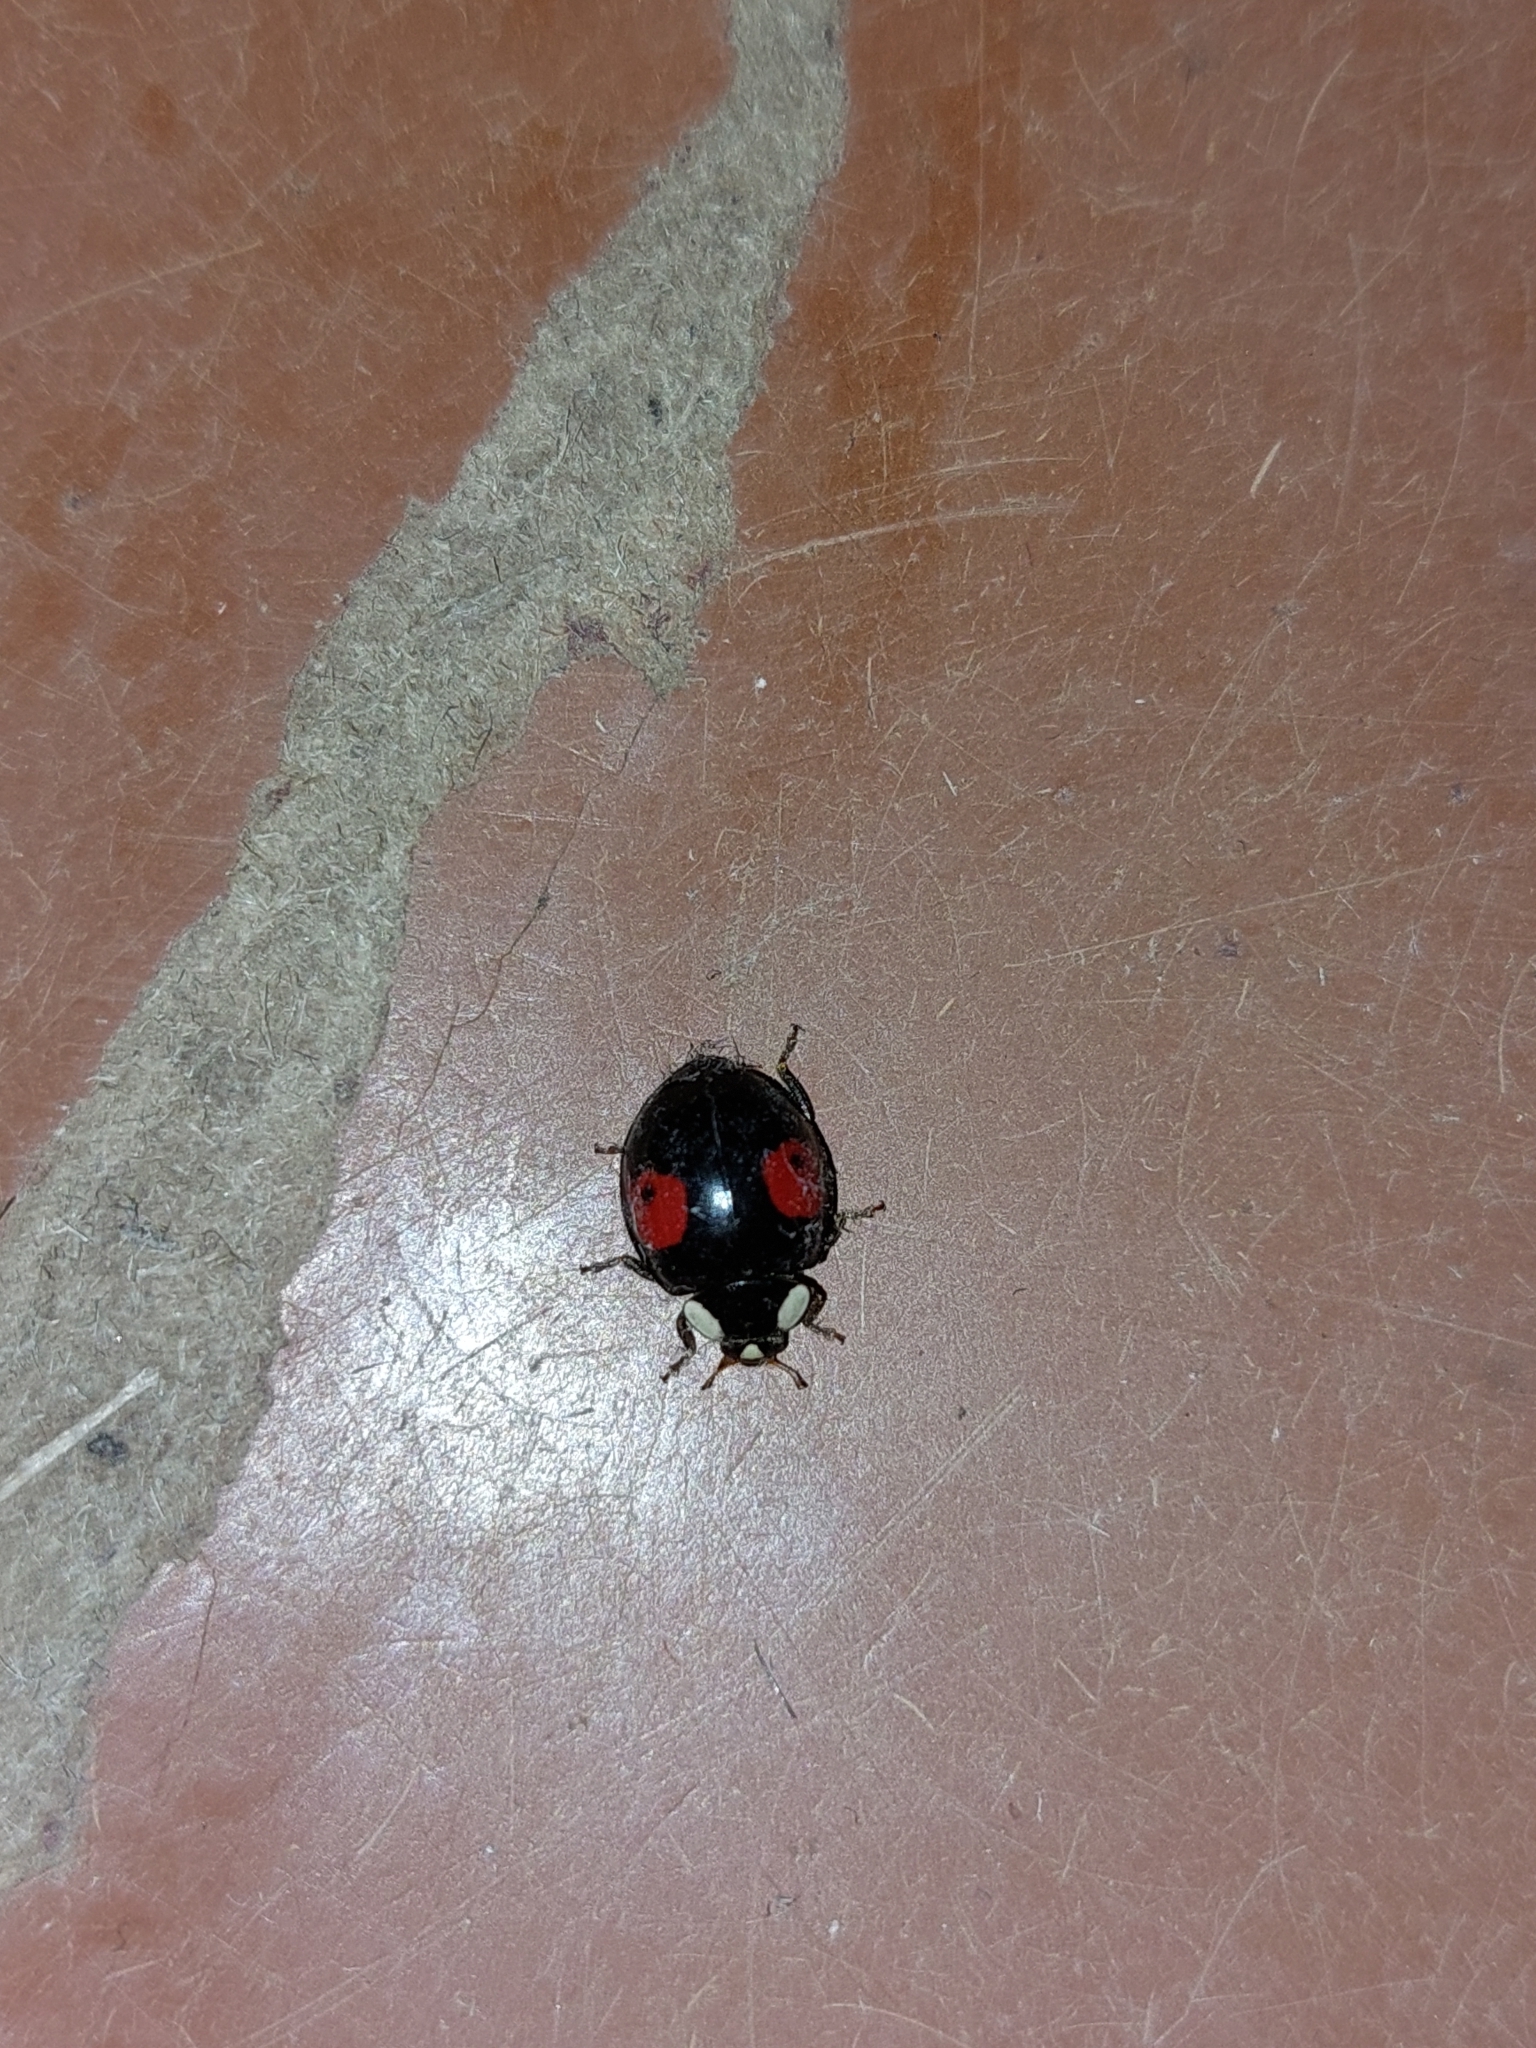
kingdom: Animalia
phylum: Arthropoda
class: Insecta
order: Coleoptera
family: Coccinellidae
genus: Harmonia
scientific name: Harmonia axyridis
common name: Harlequin ladybird
